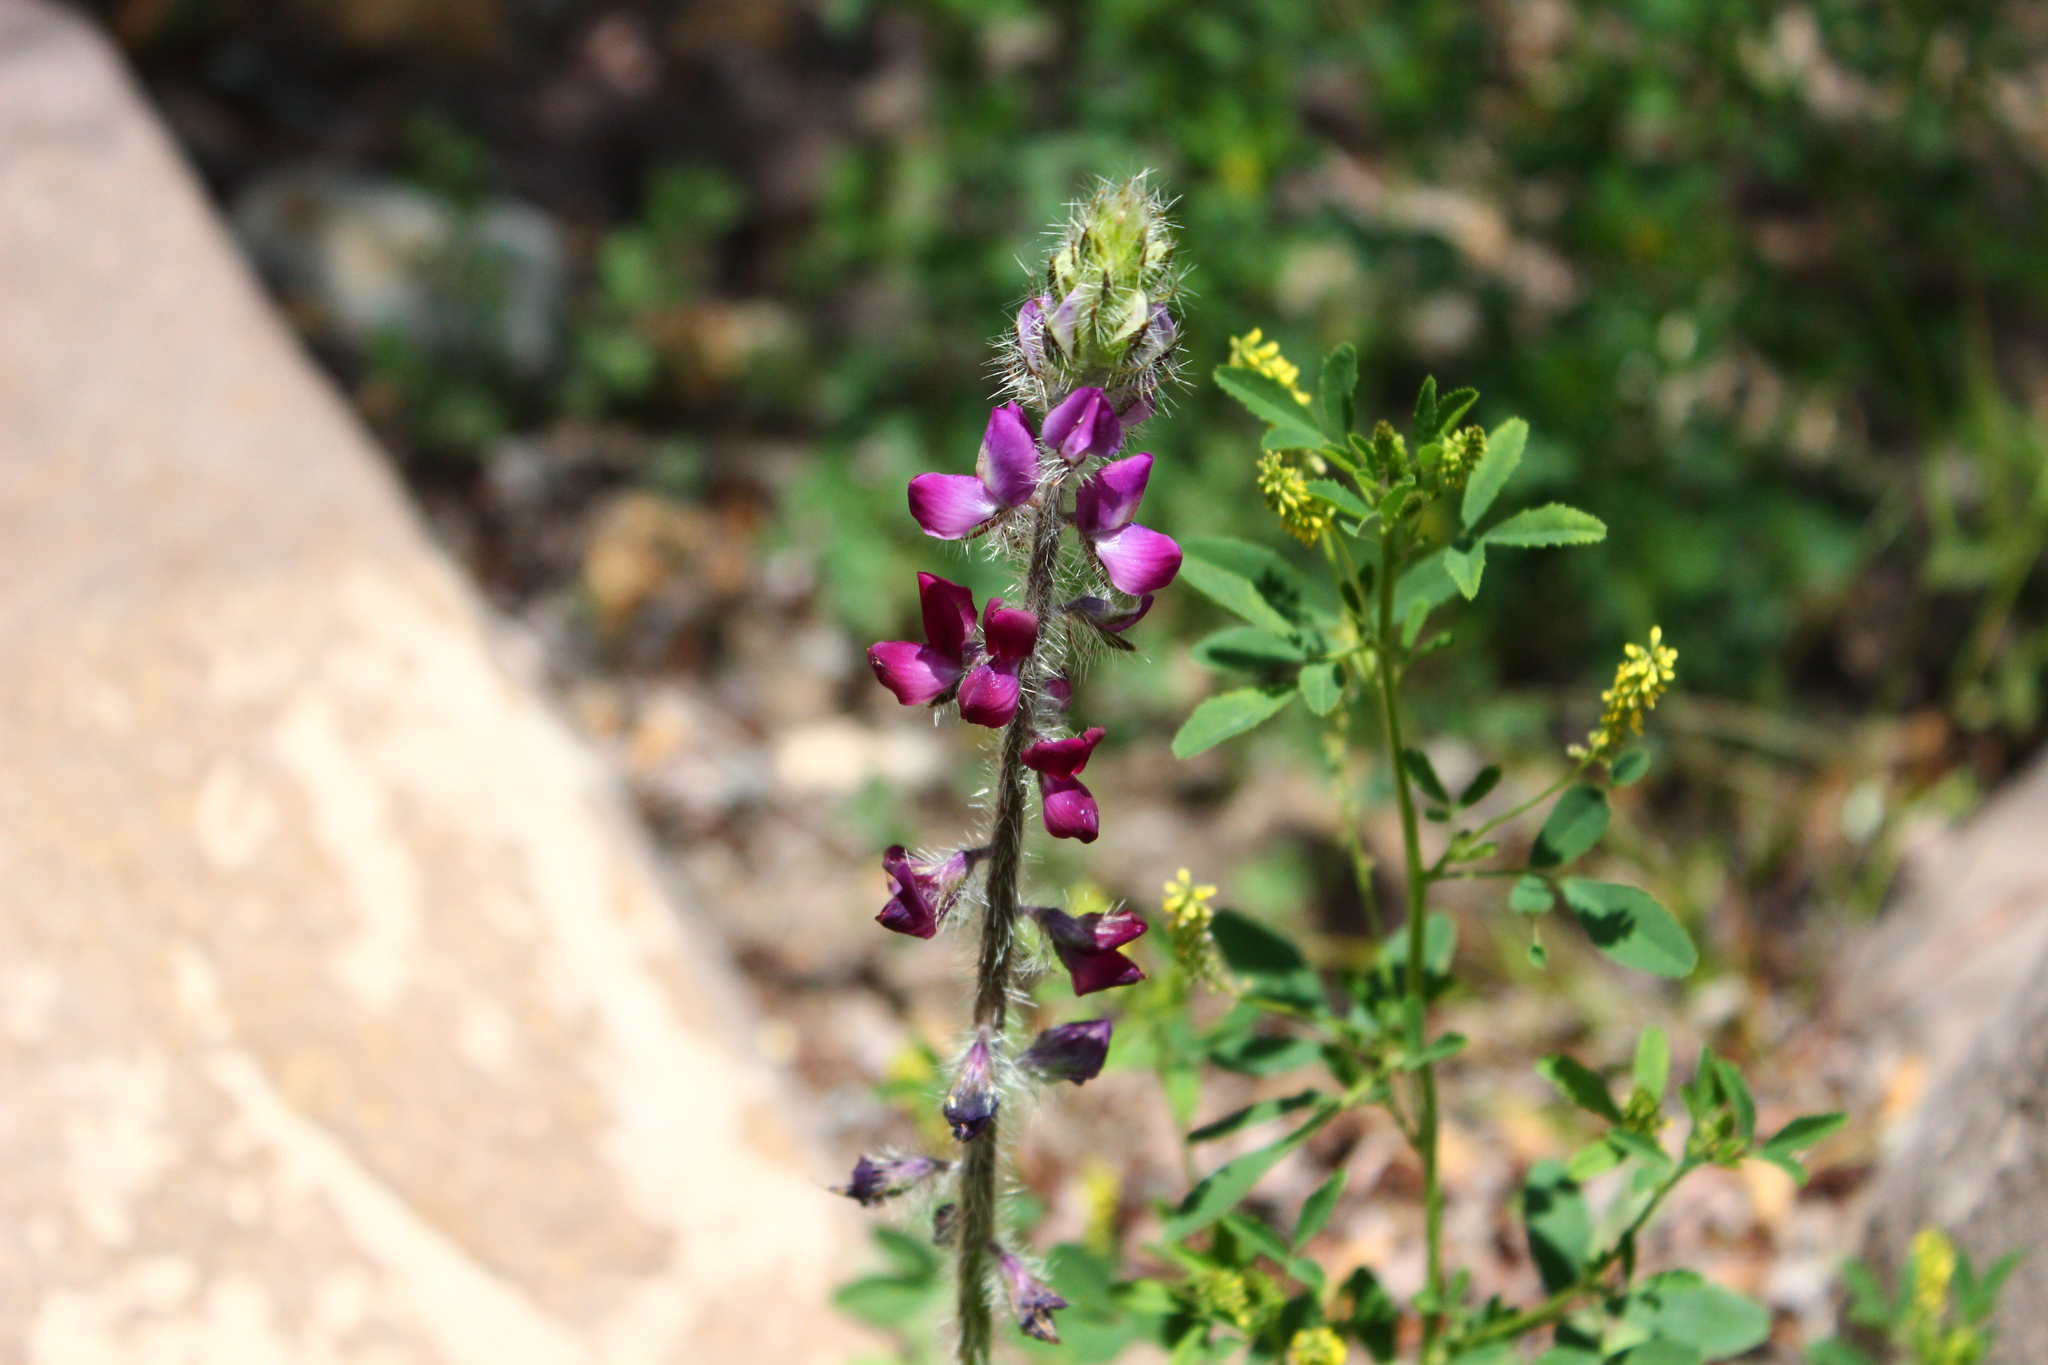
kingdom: Plantae
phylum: Tracheophyta
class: Magnoliopsida
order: Fabales
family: Fabaceae
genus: Lupinus
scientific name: Lupinus hirsutissimus
